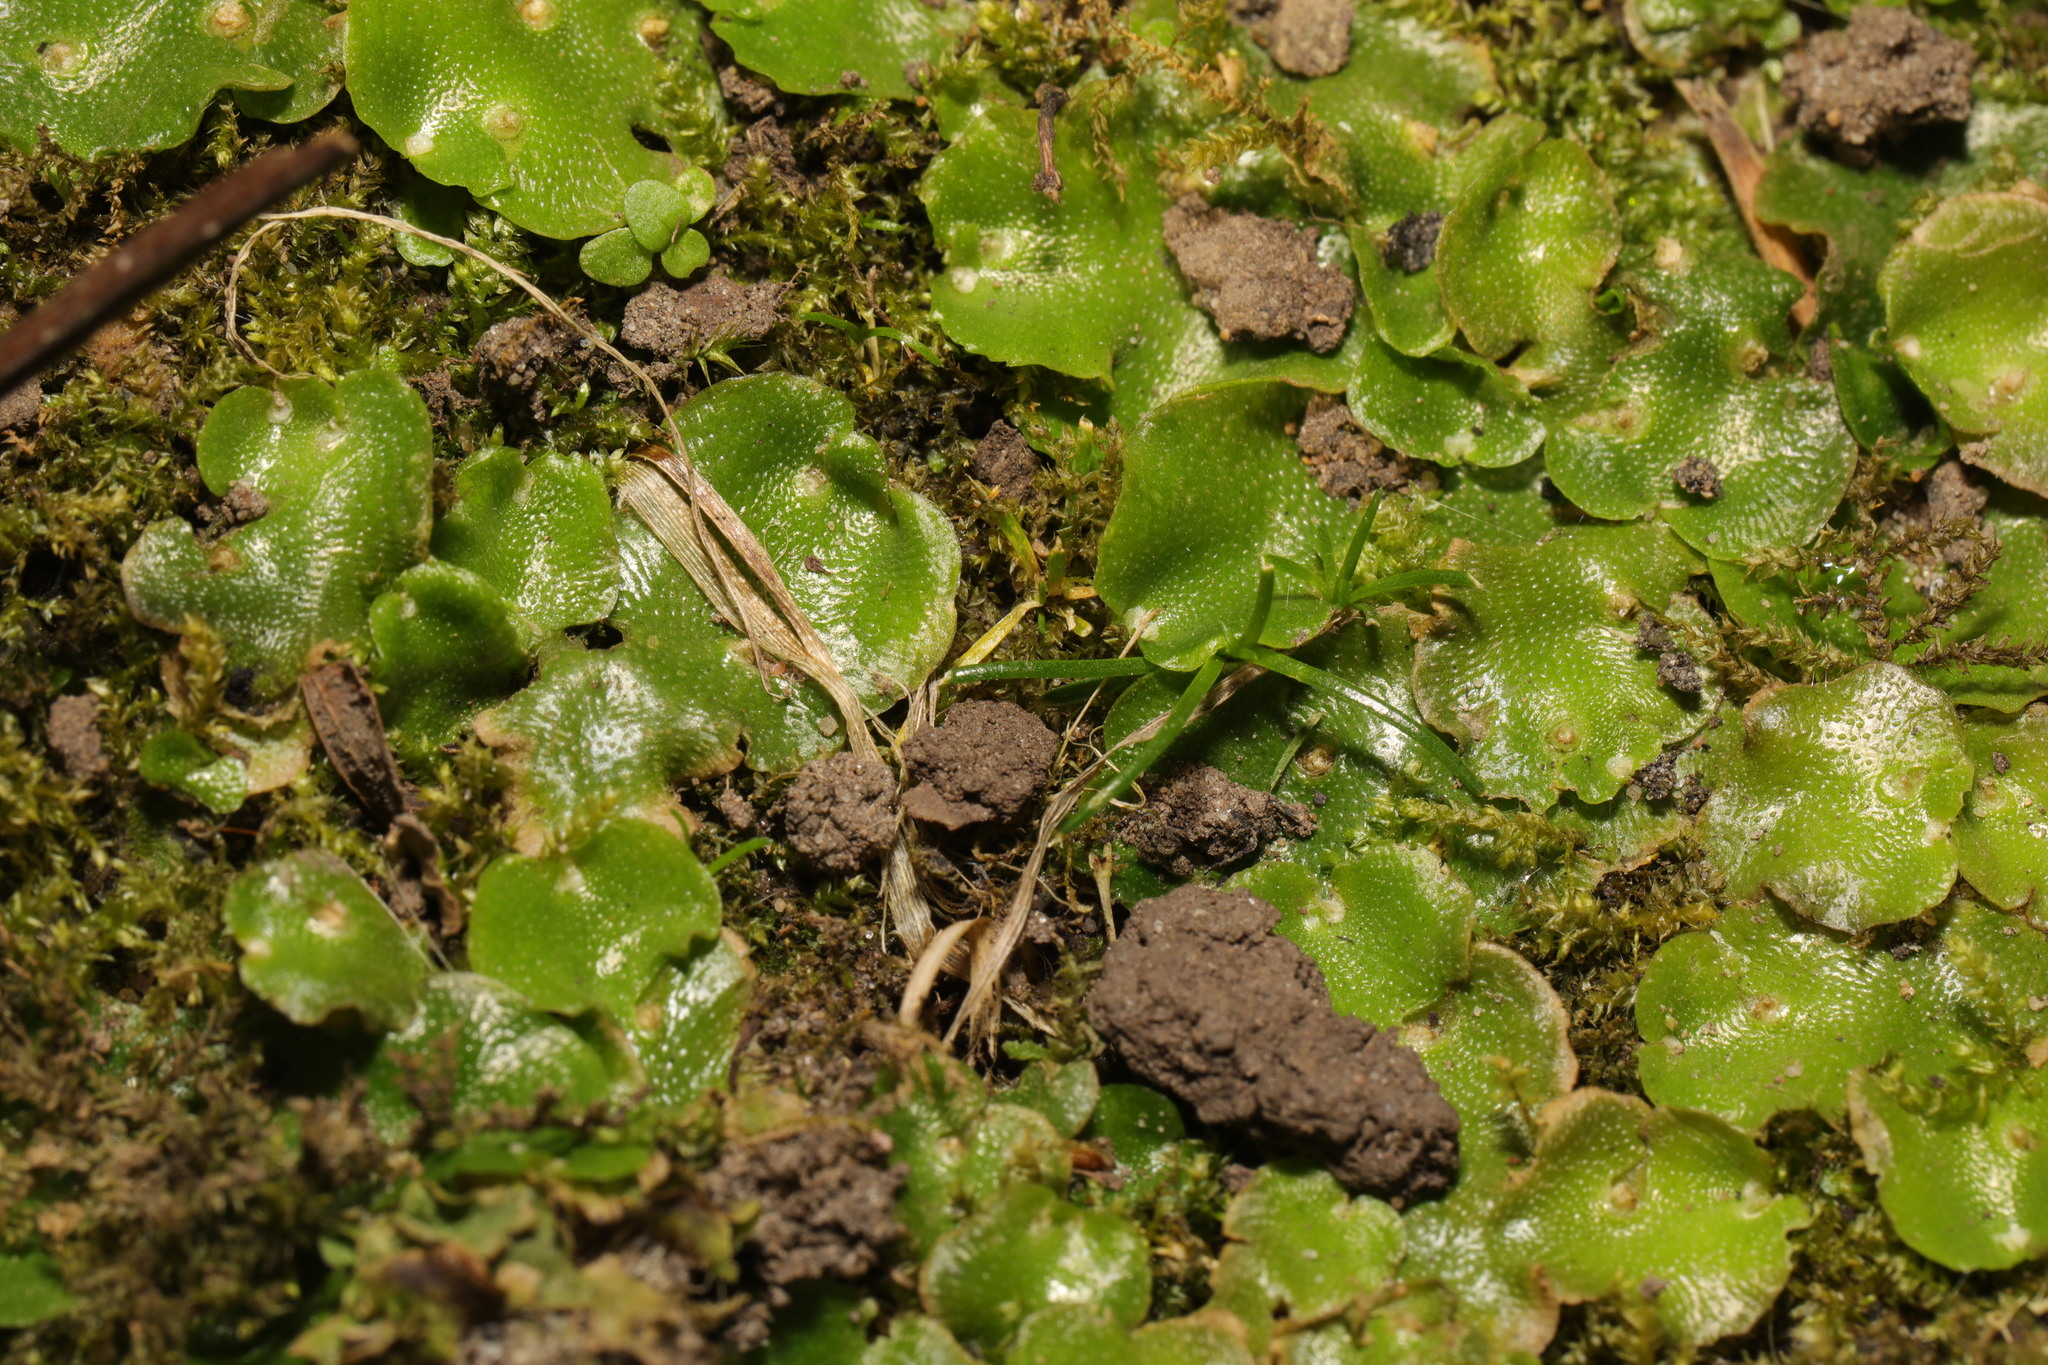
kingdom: Plantae
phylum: Marchantiophyta
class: Marchantiopsida
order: Lunulariales
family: Lunulariaceae
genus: Lunularia
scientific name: Lunularia cruciata
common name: Crescent-cup liverwort
